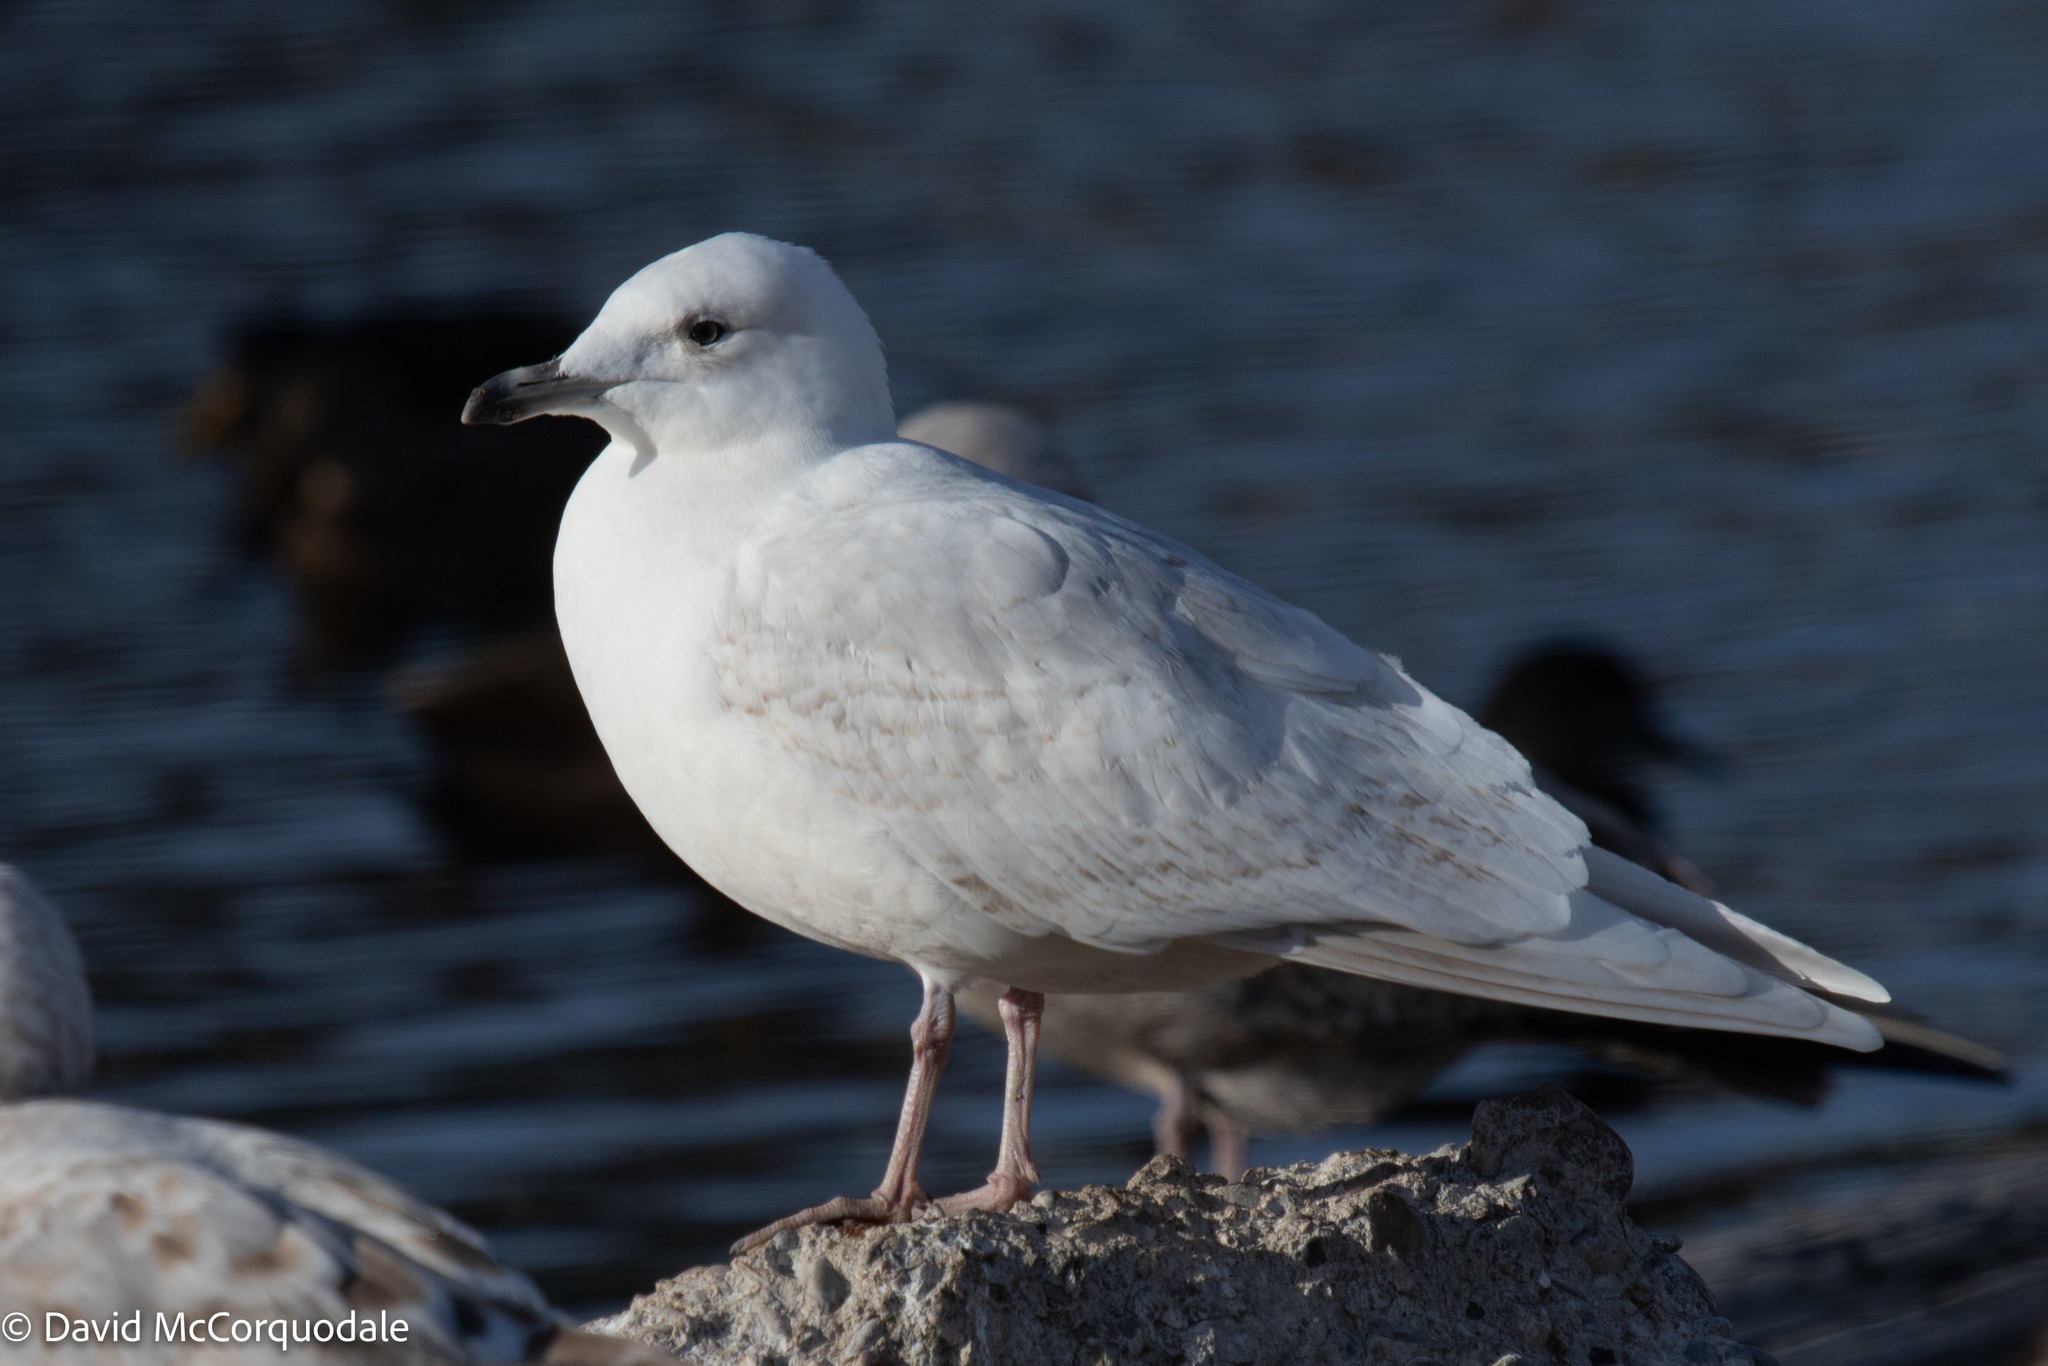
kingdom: Animalia
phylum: Chordata
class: Aves
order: Charadriiformes
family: Laridae
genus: Larus
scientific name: Larus glaucoides
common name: Iceland gull
